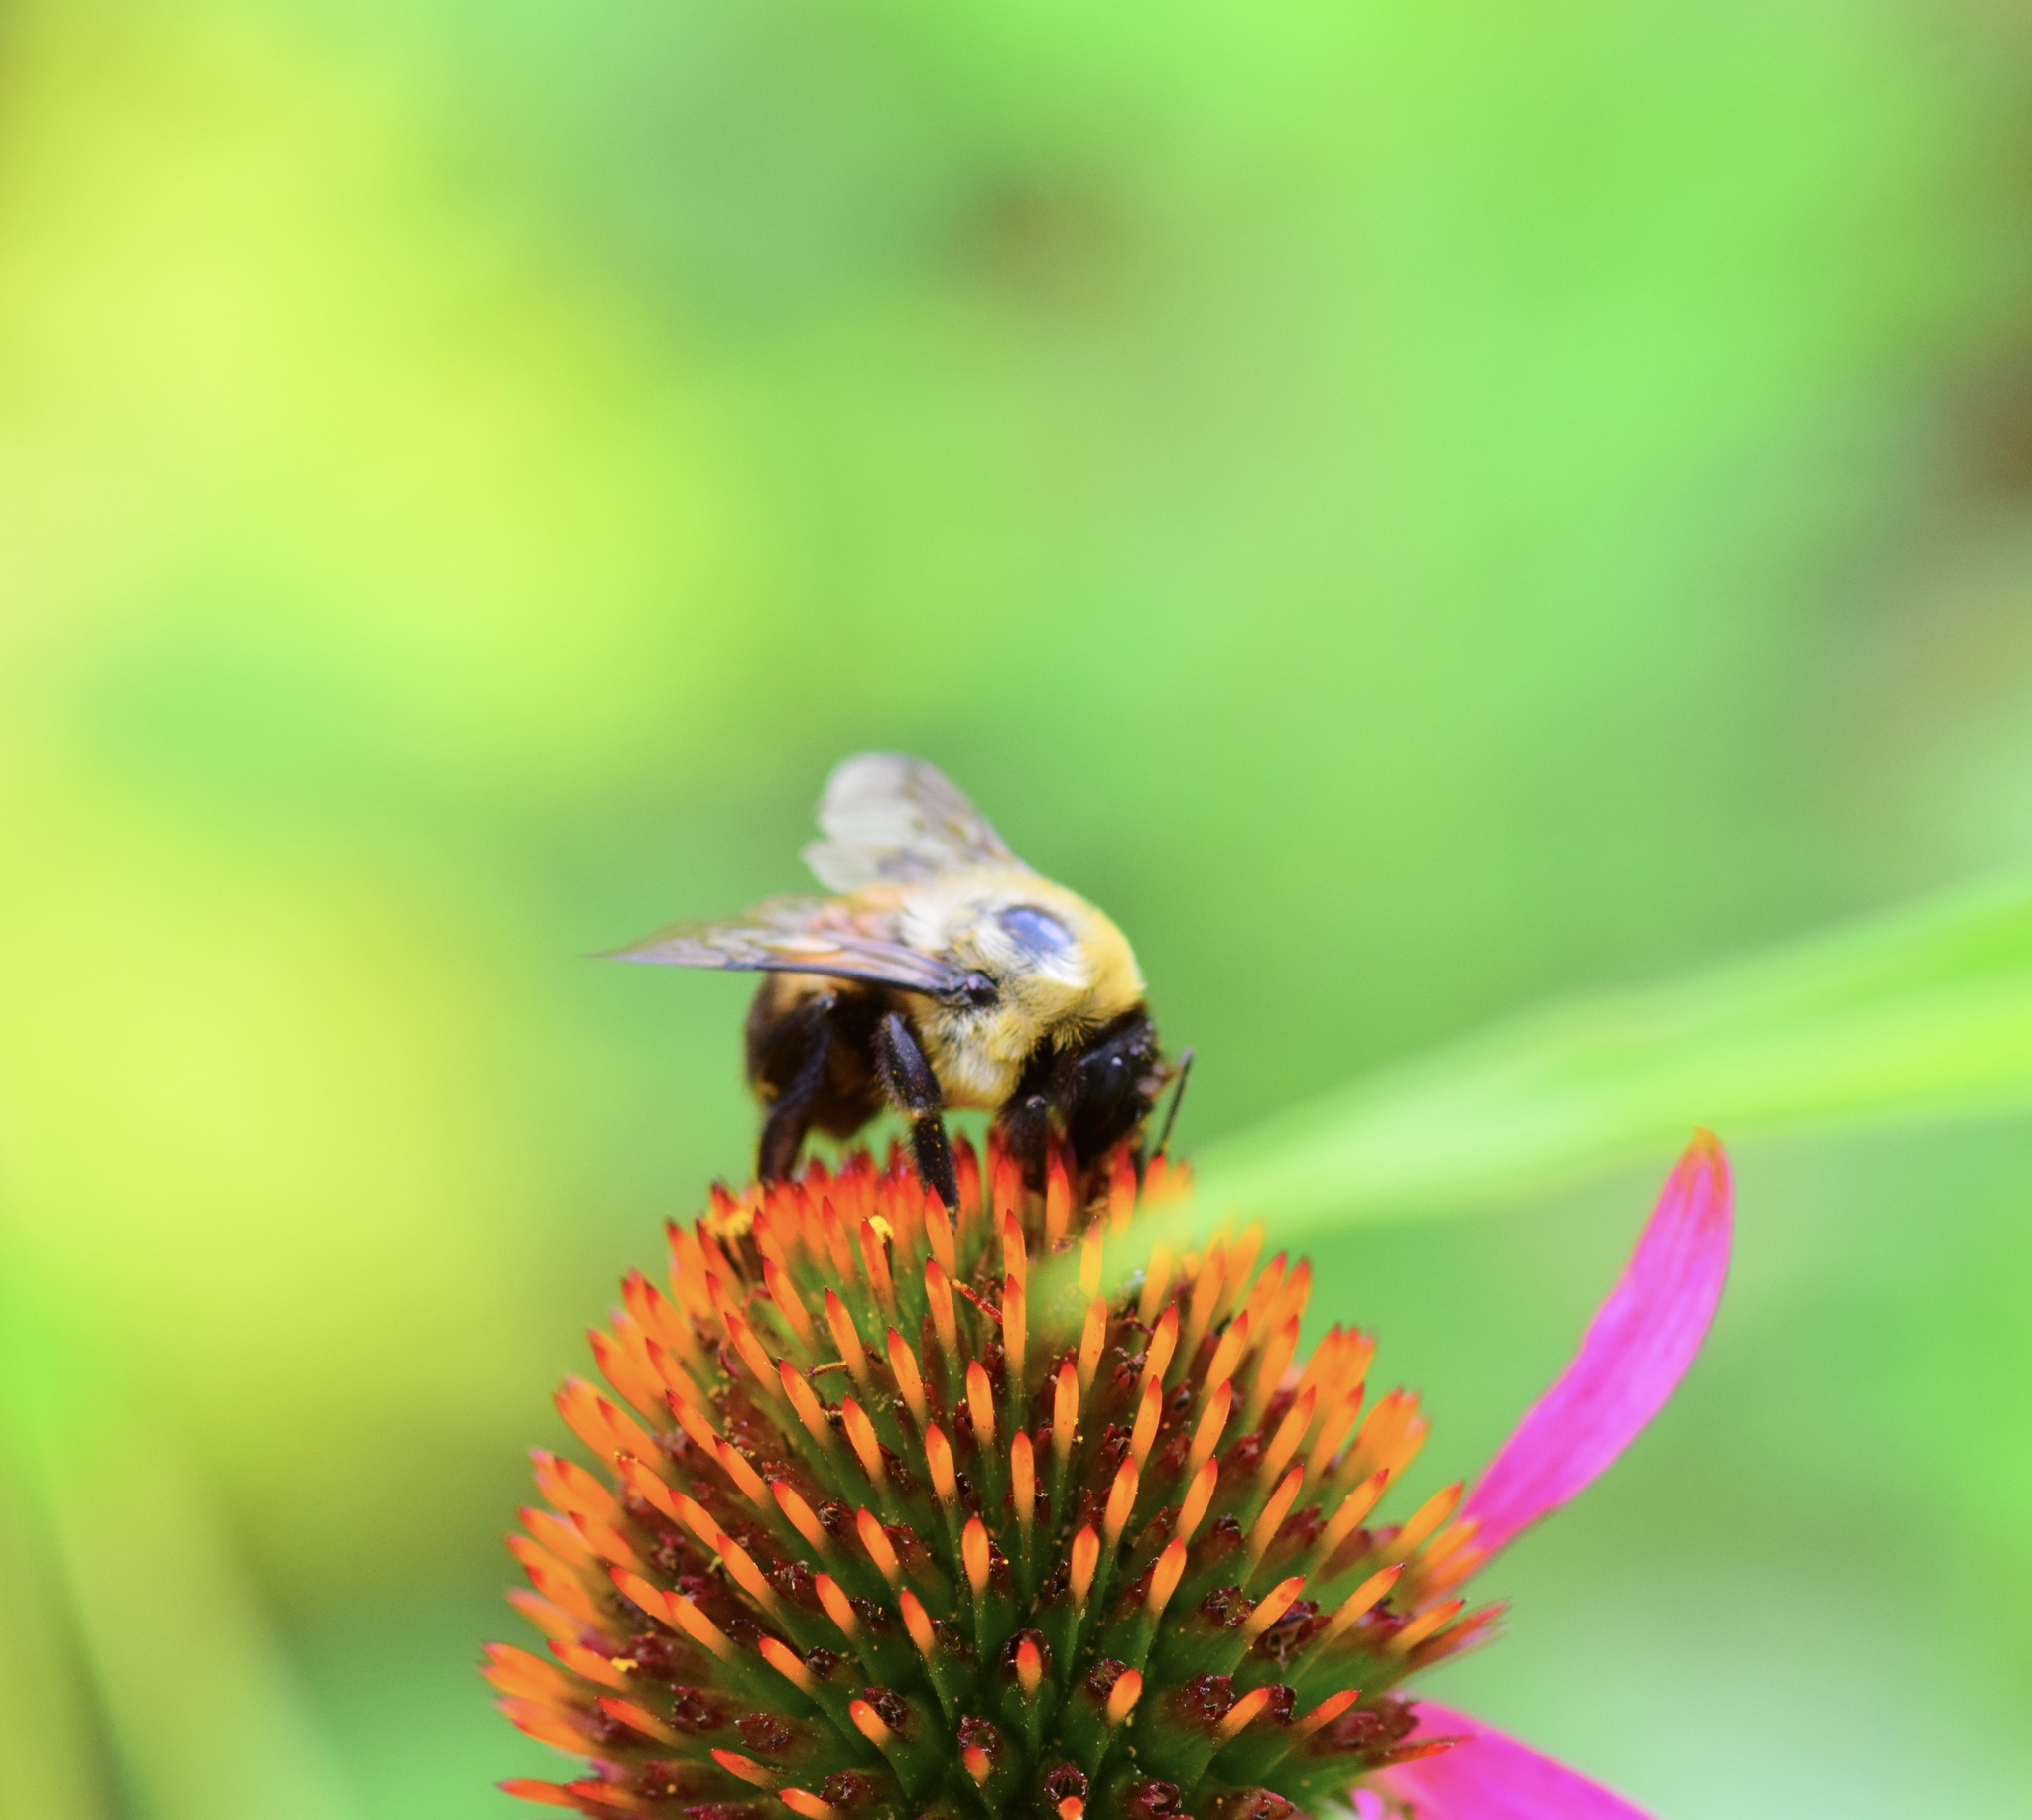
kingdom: Animalia
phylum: Arthropoda
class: Insecta
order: Hymenoptera
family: Apidae
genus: Bombus
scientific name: Bombus griseocollis
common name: Brown-belted bumble bee
